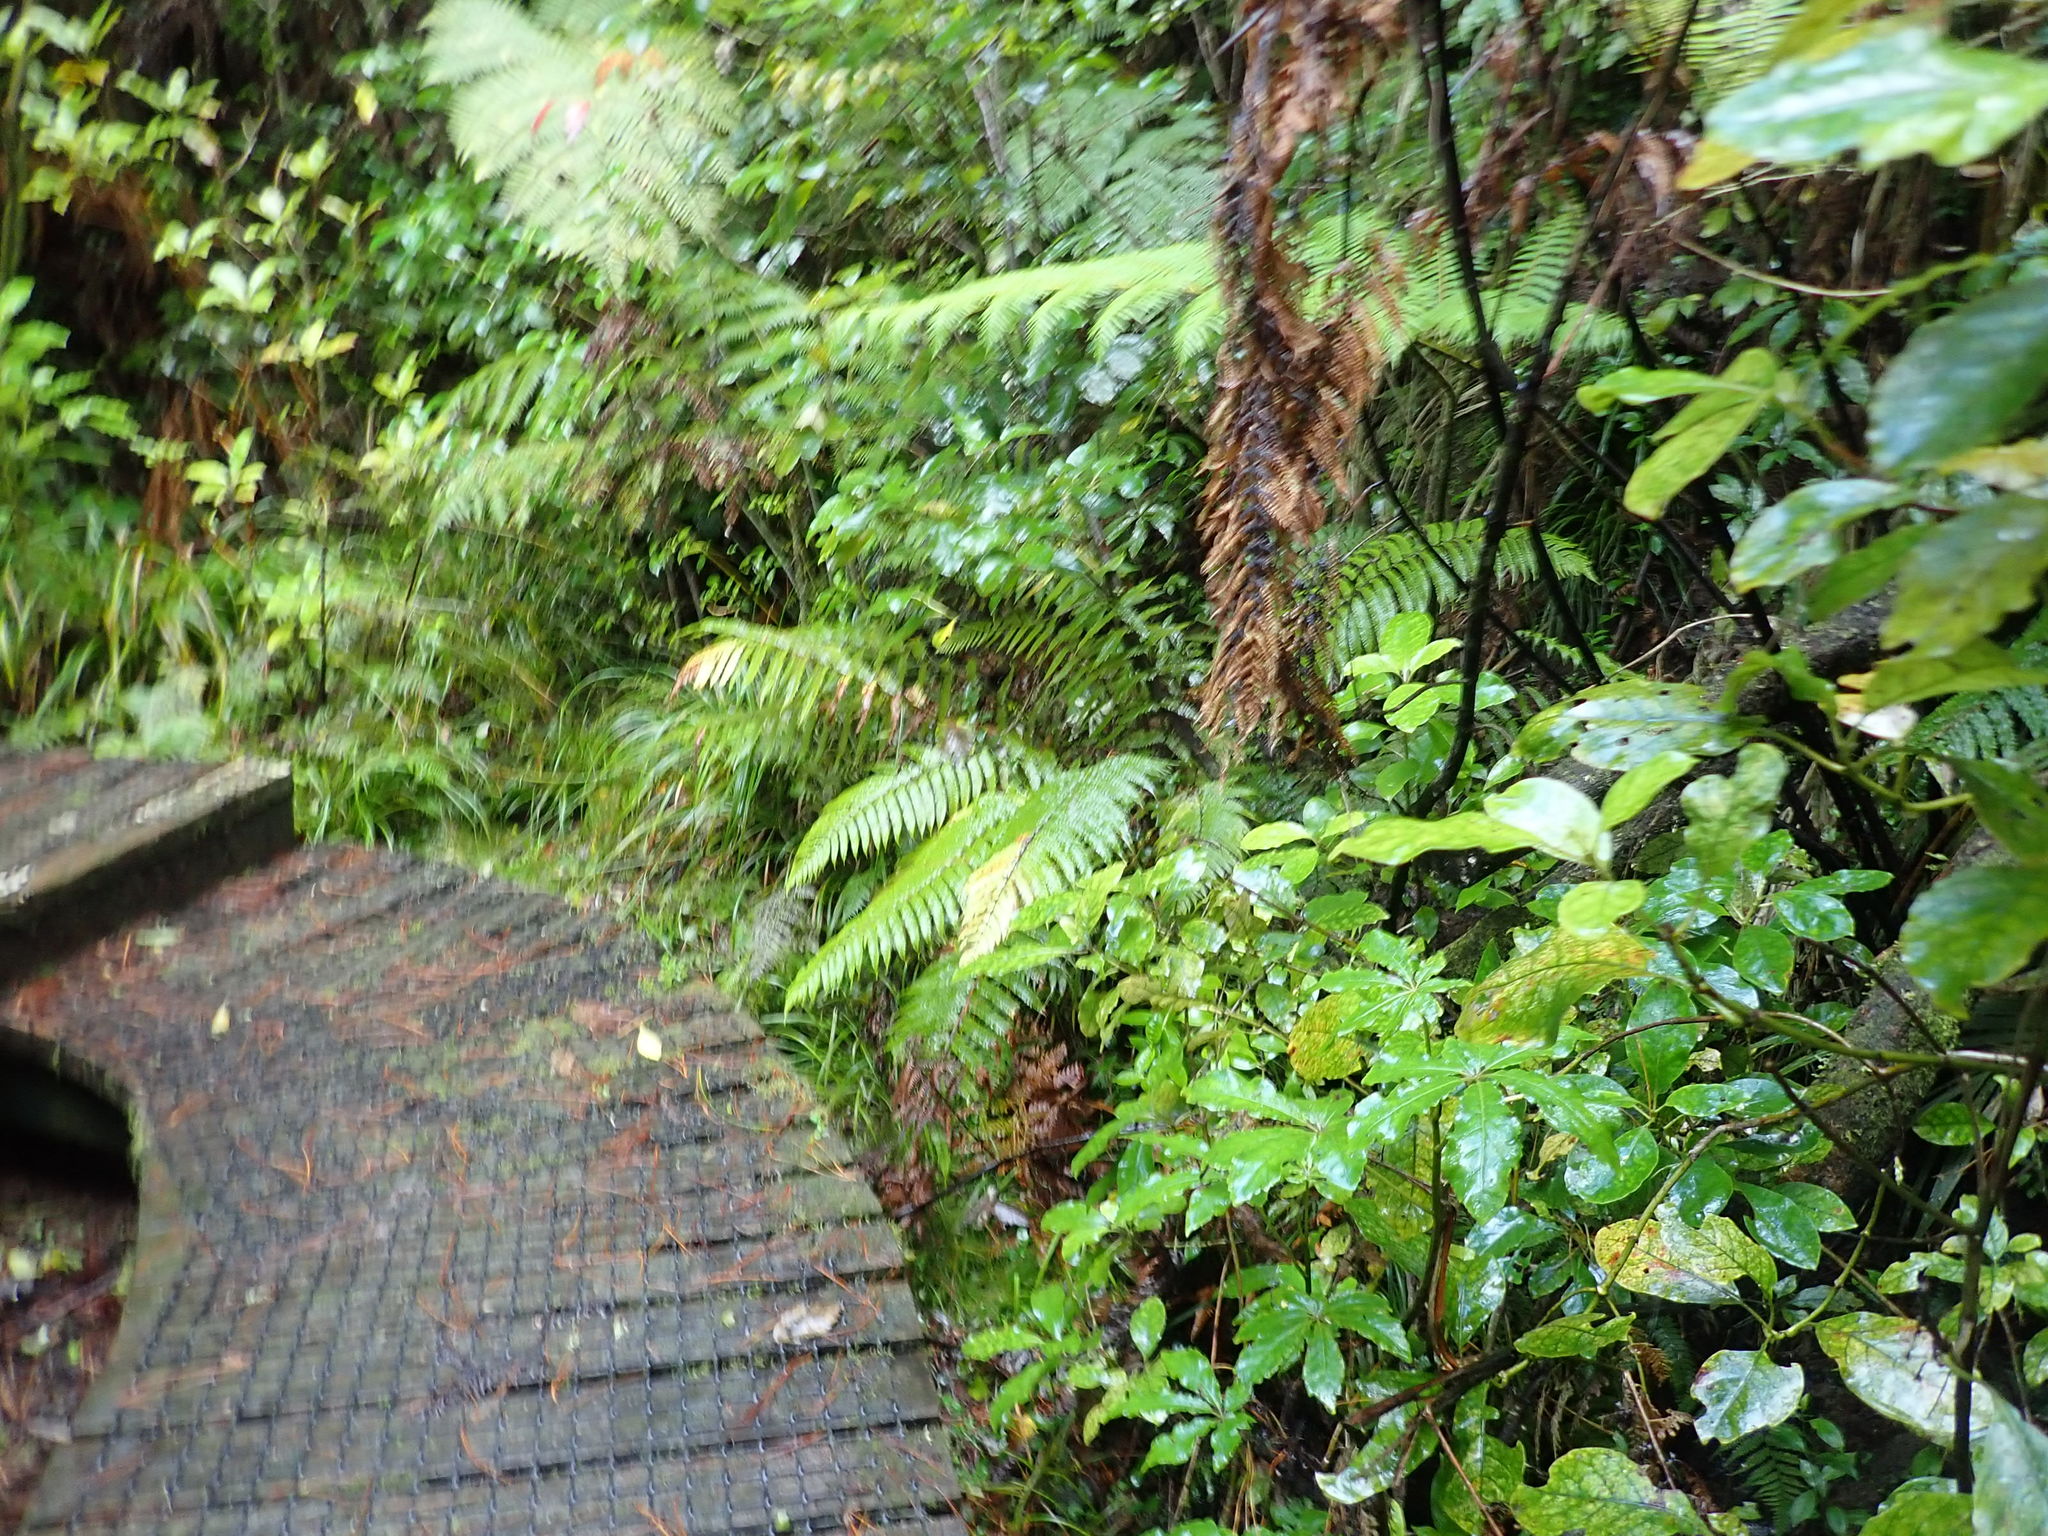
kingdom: Plantae
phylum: Tracheophyta
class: Magnoliopsida
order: Apiales
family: Araliaceae
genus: Schefflera
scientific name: Schefflera digitata
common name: Pate
